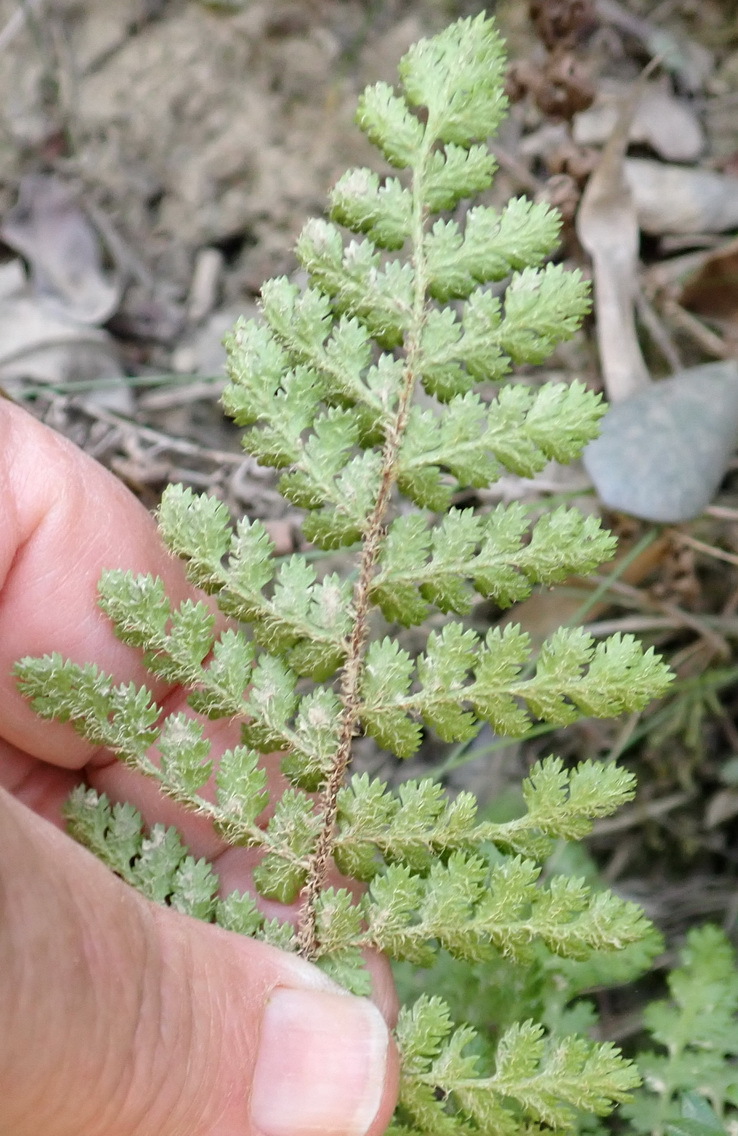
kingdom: Plantae
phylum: Tracheophyta
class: Polypodiopsida
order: Schizaeales
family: Anemiaceae
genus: Anemia
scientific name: Anemia caffrorum
